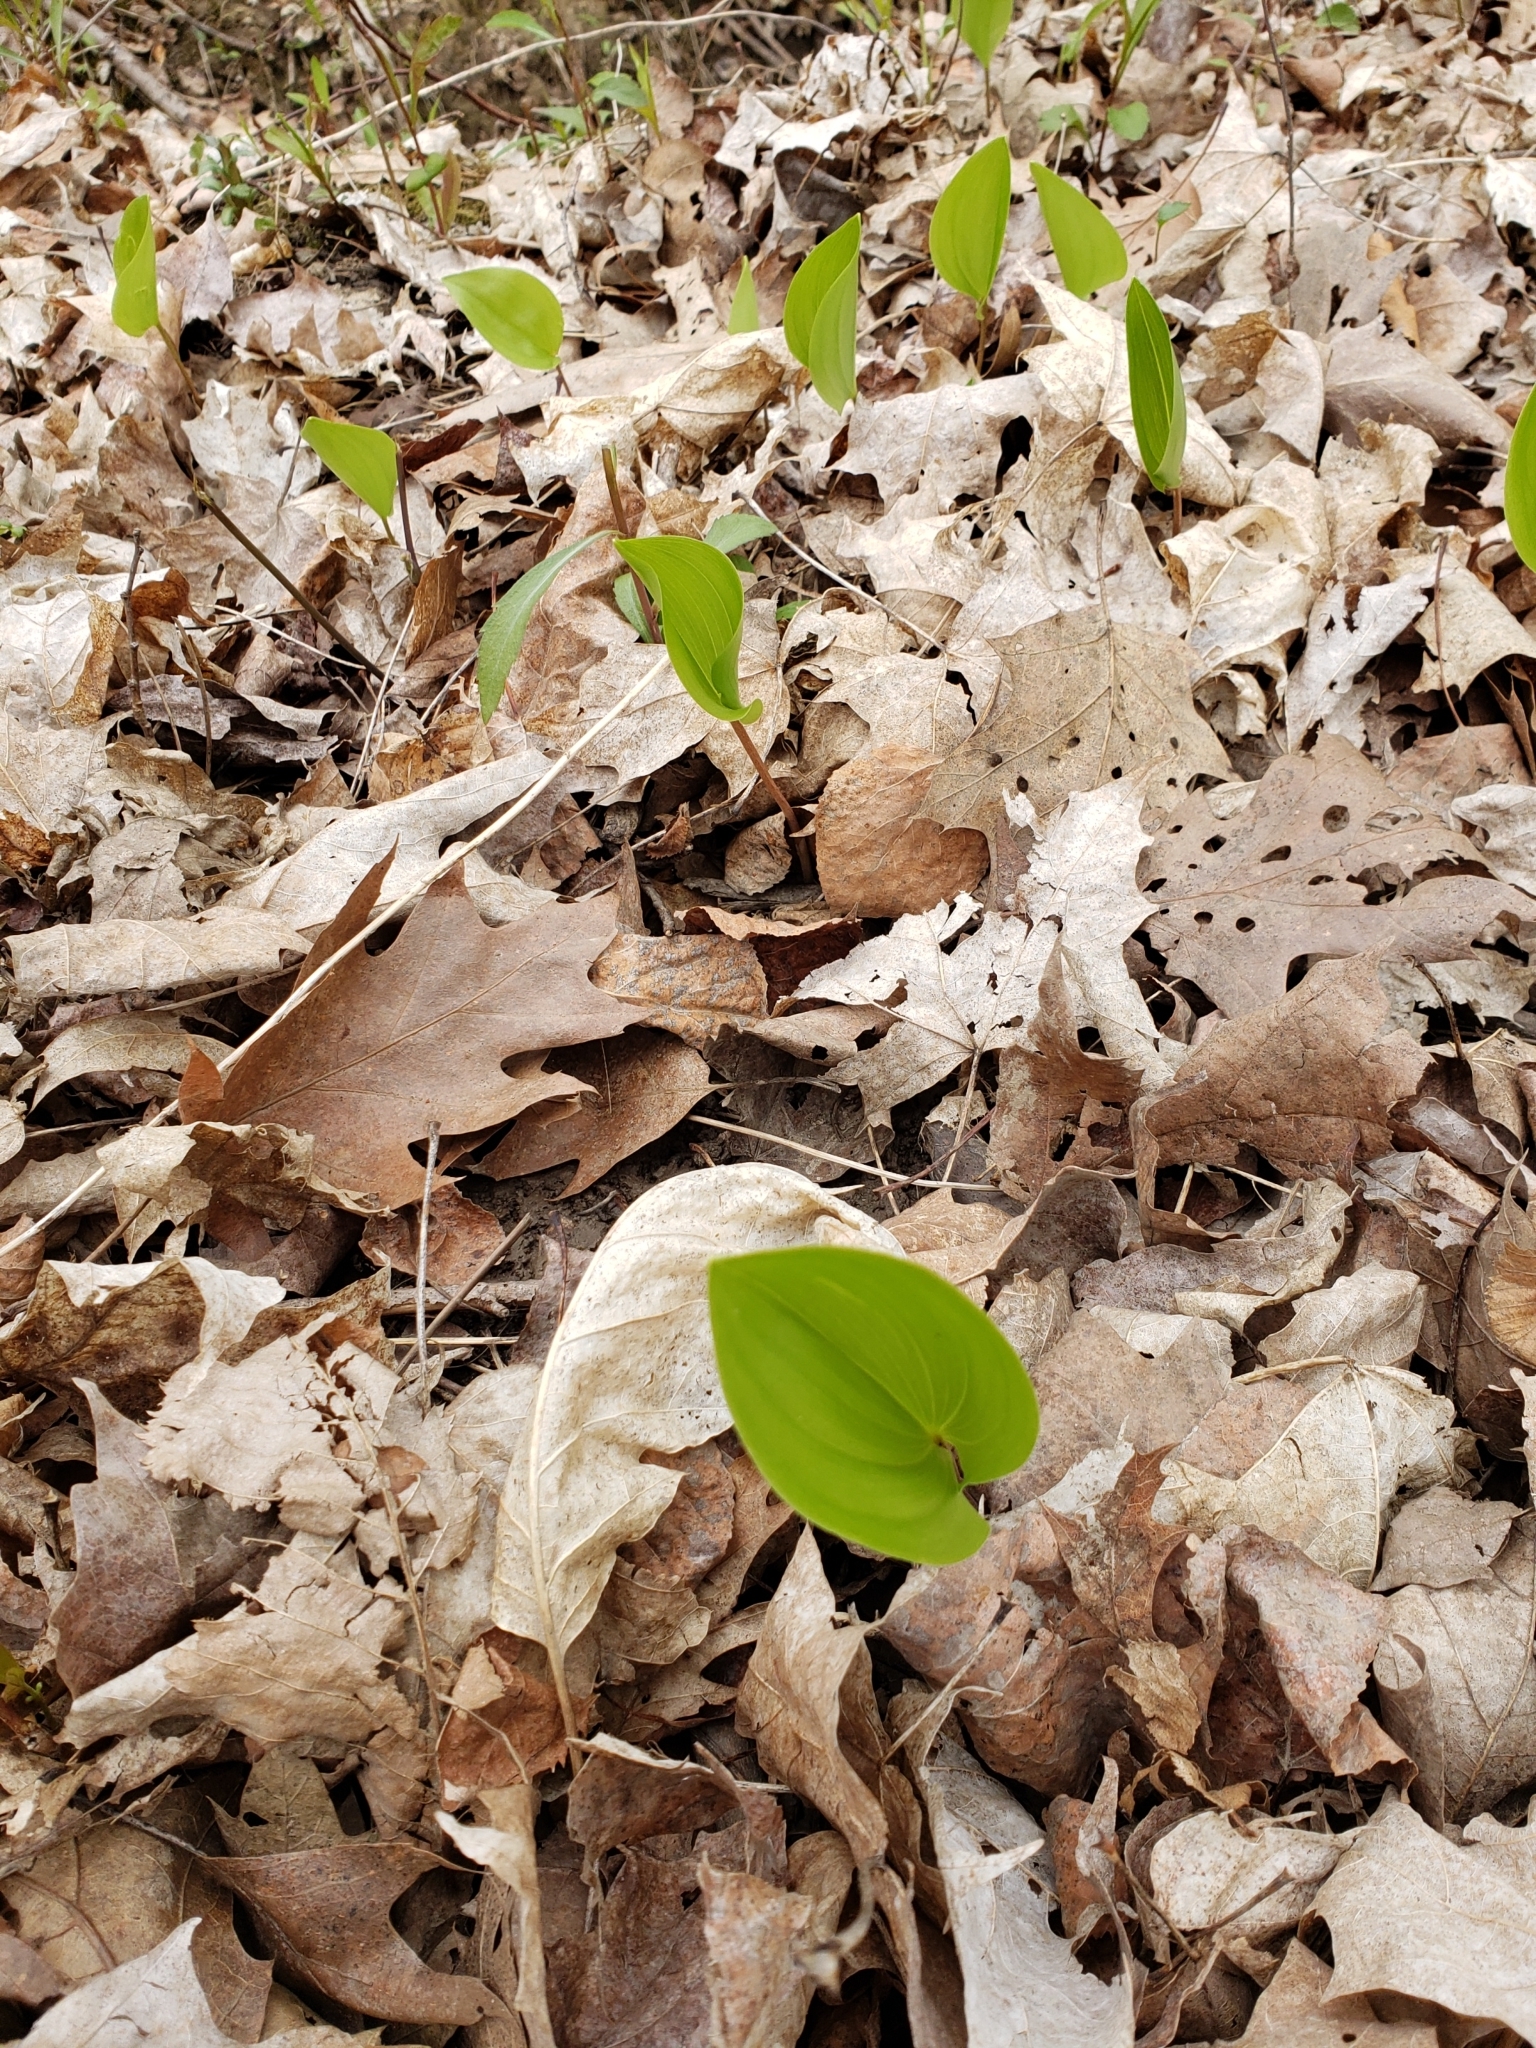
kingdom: Plantae
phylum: Tracheophyta
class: Liliopsida
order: Asparagales
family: Asparagaceae
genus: Maianthemum
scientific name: Maianthemum canadense
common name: False lily-of-the-valley
